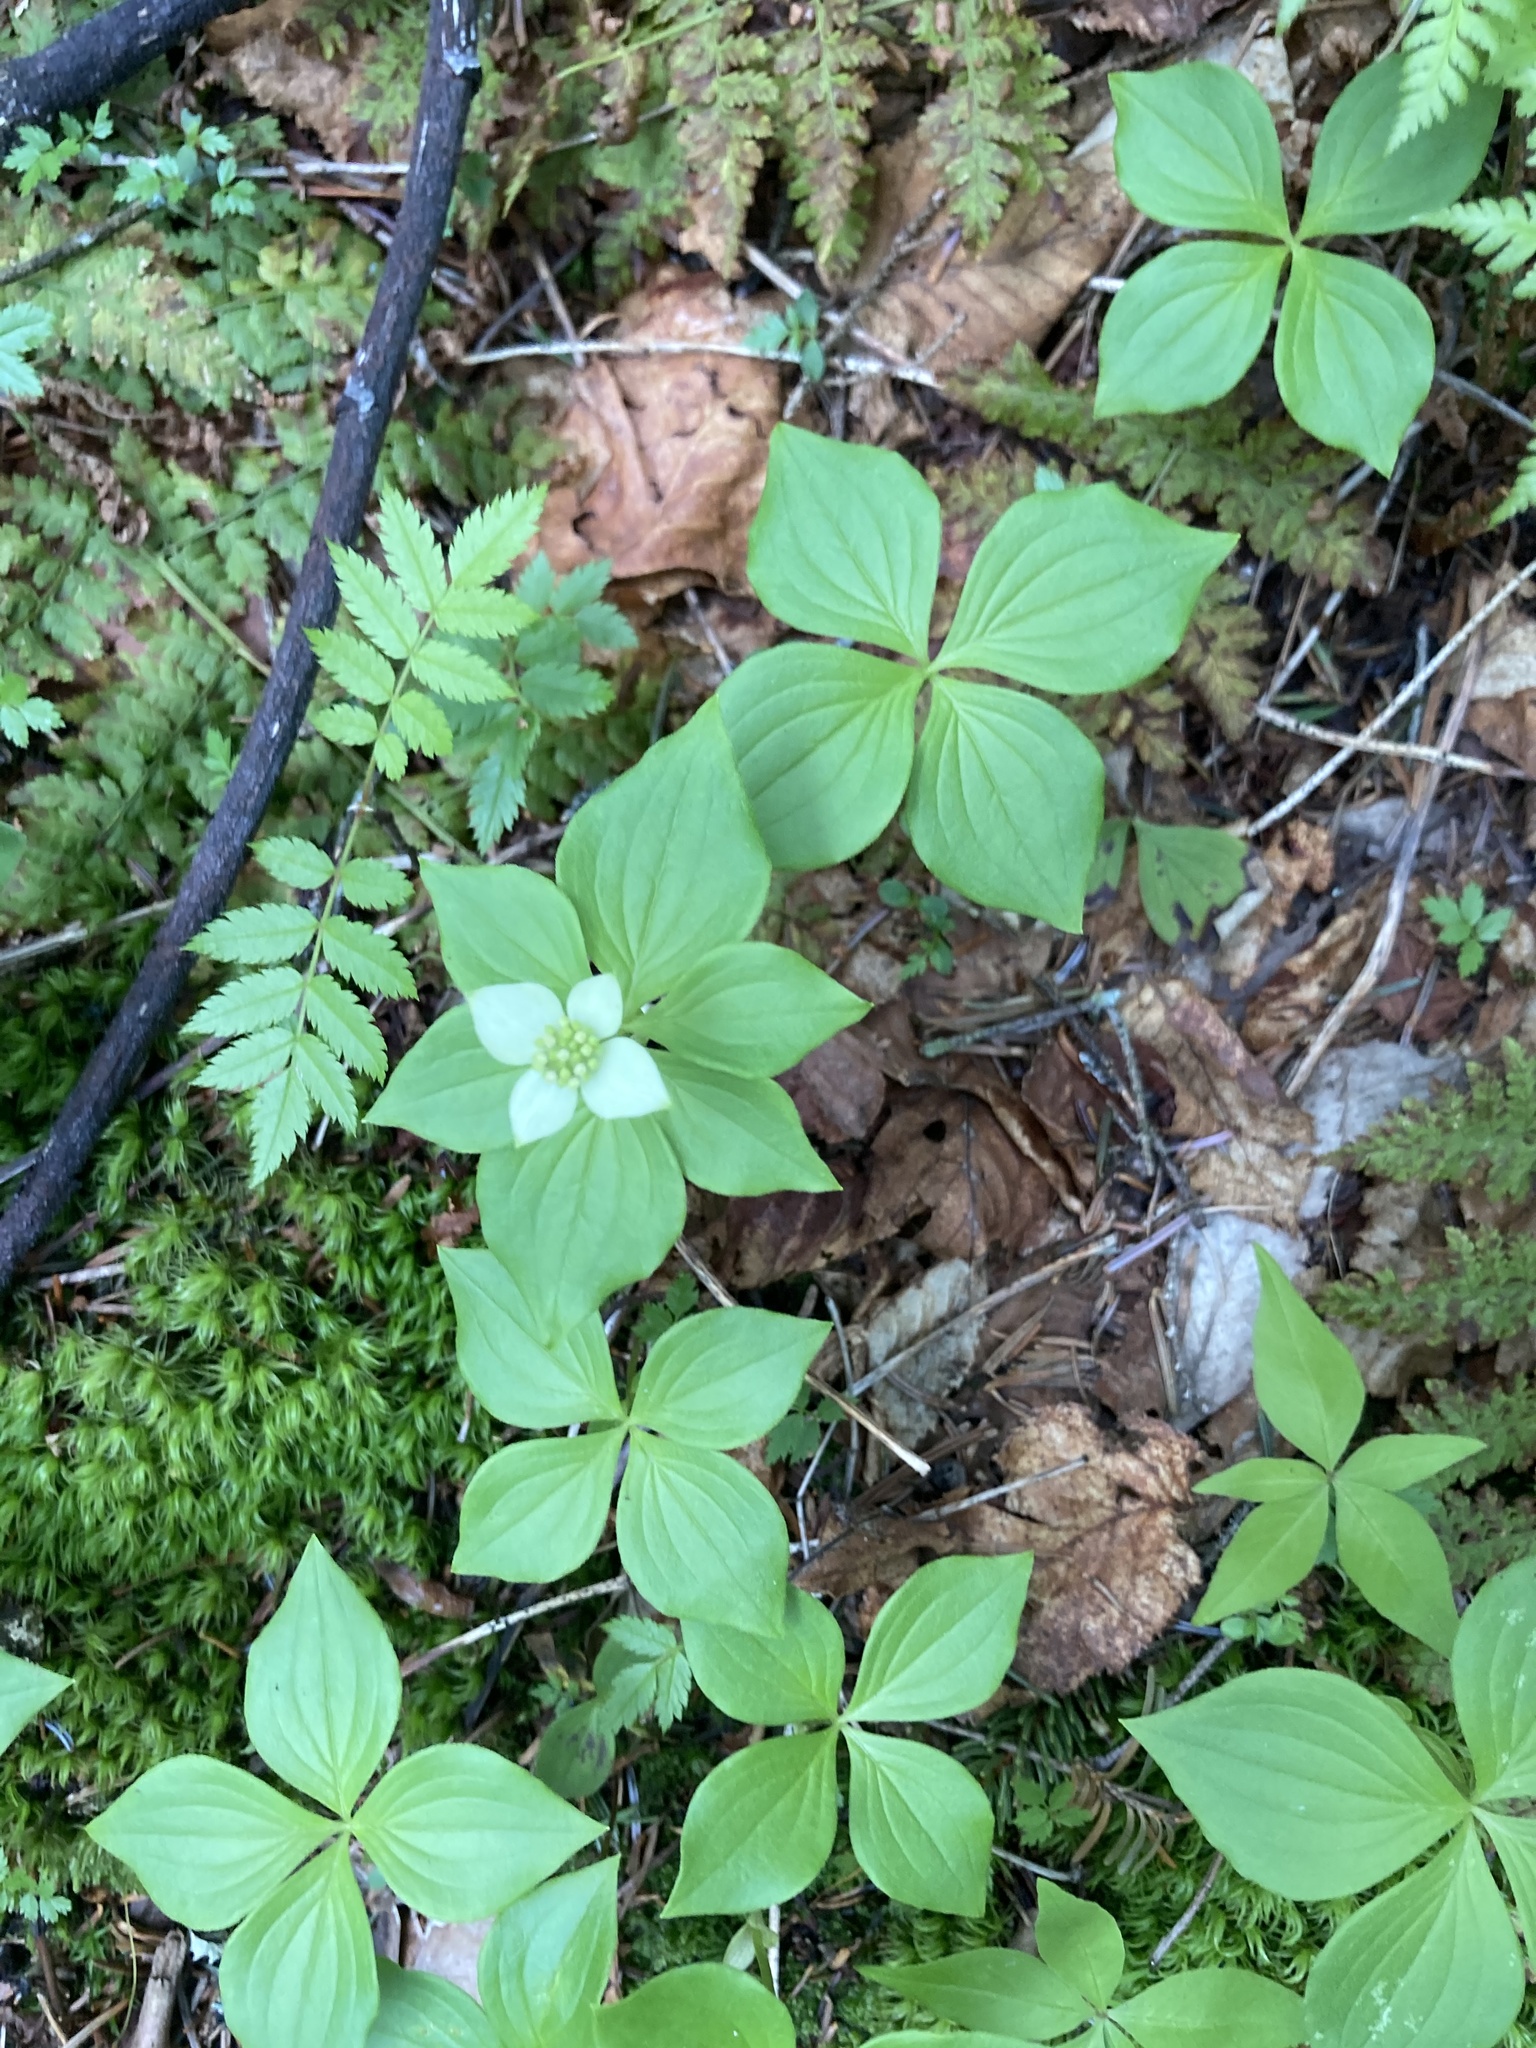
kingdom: Plantae
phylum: Tracheophyta
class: Magnoliopsida
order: Cornales
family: Cornaceae
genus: Cornus
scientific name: Cornus canadensis
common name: Creeping dogwood
